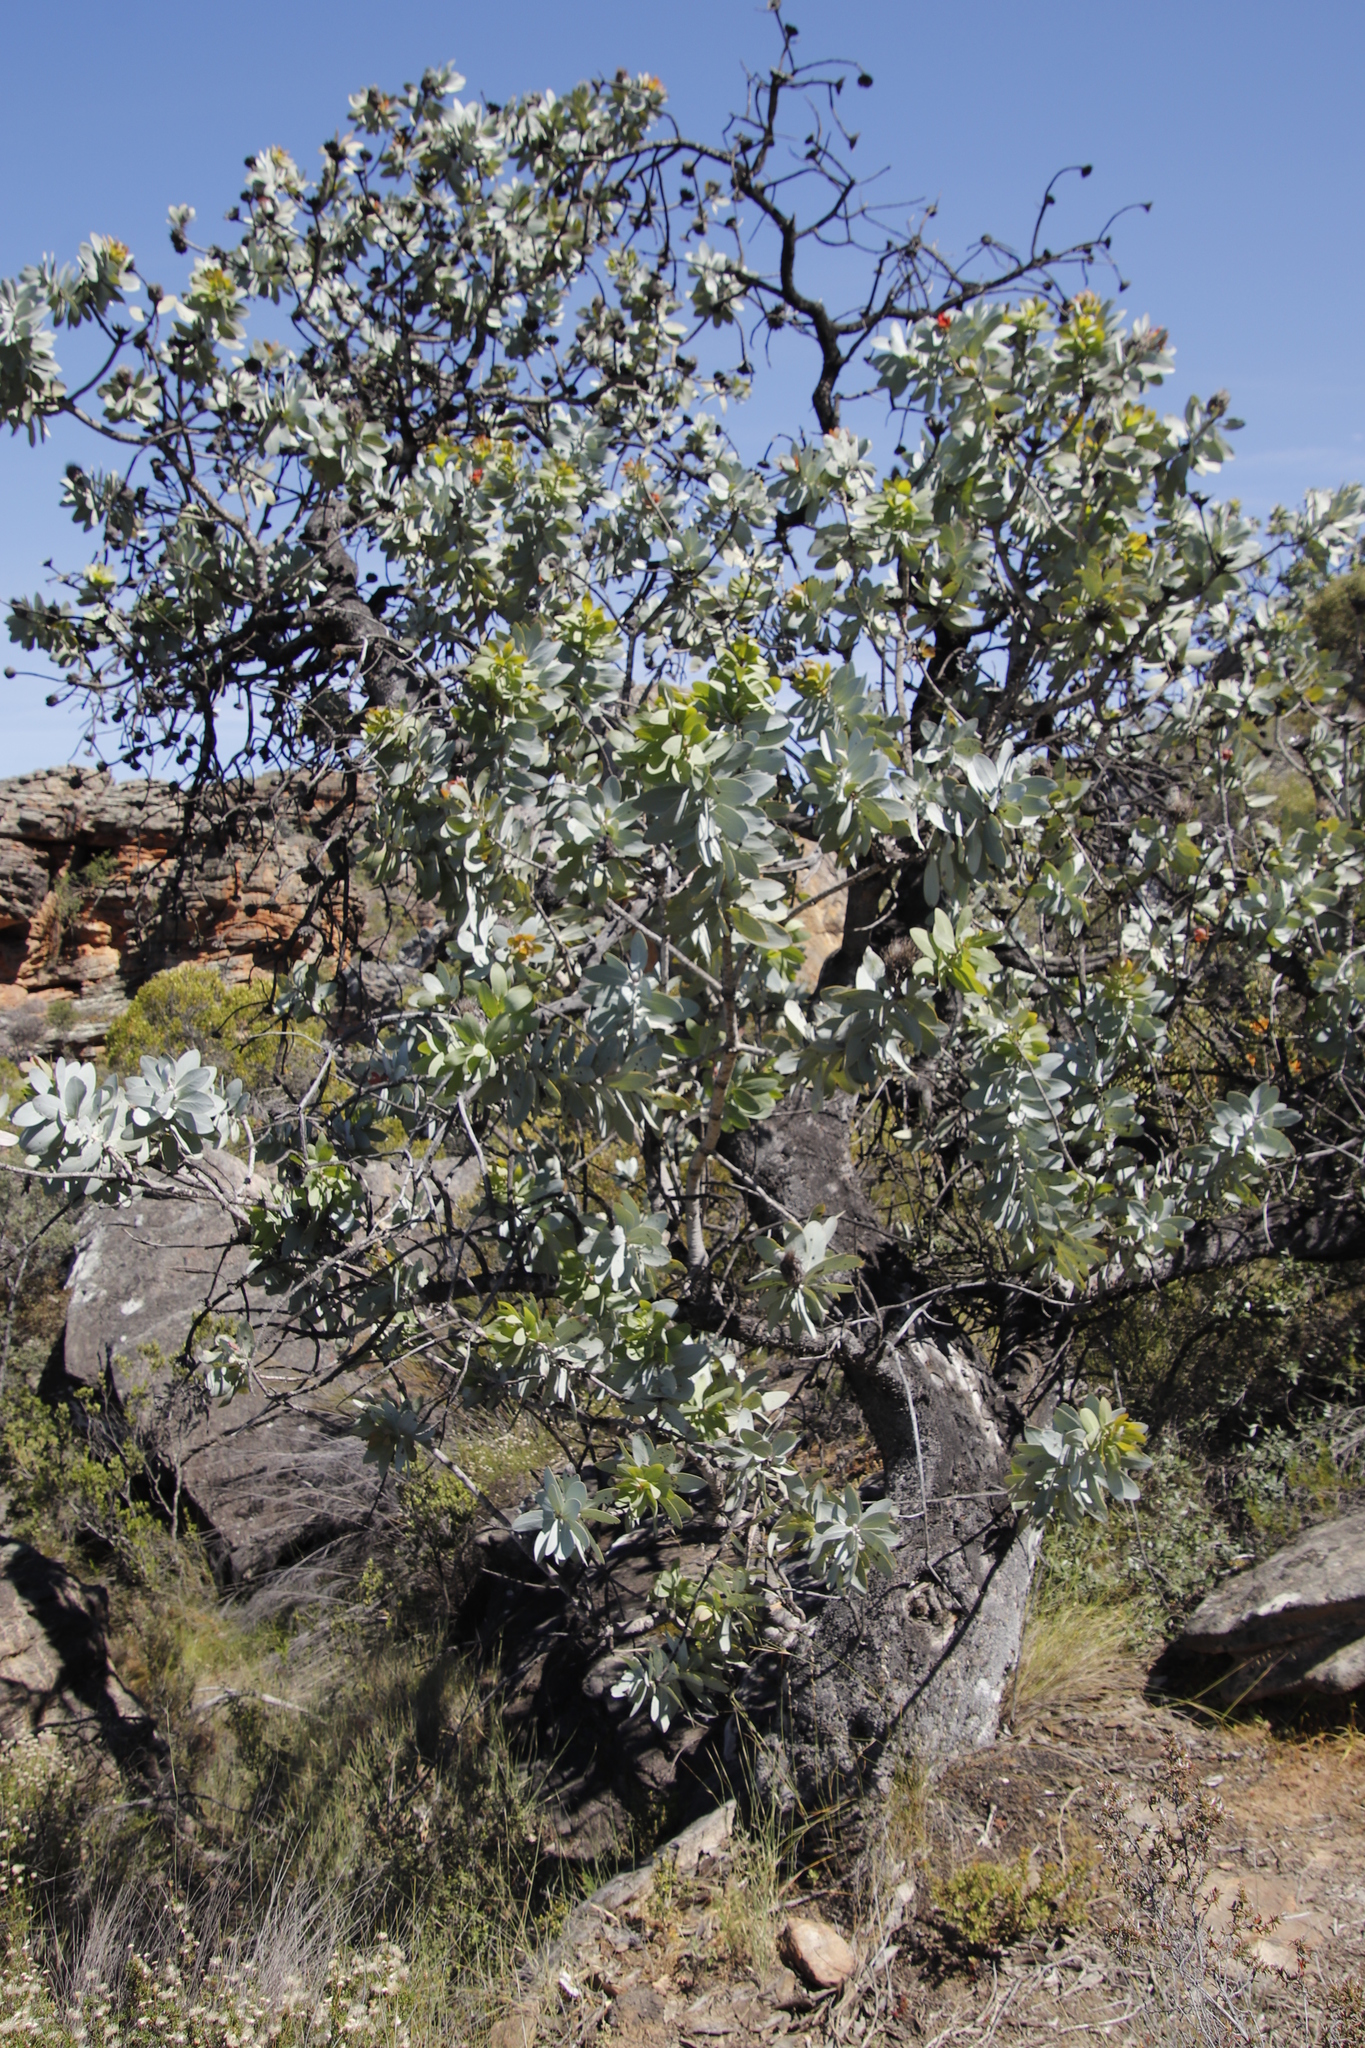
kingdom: Plantae
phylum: Tracheophyta
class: Magnoliopsida
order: Proteales
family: Proteaceae
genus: Protea
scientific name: Protea nitida
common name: Tree protea
